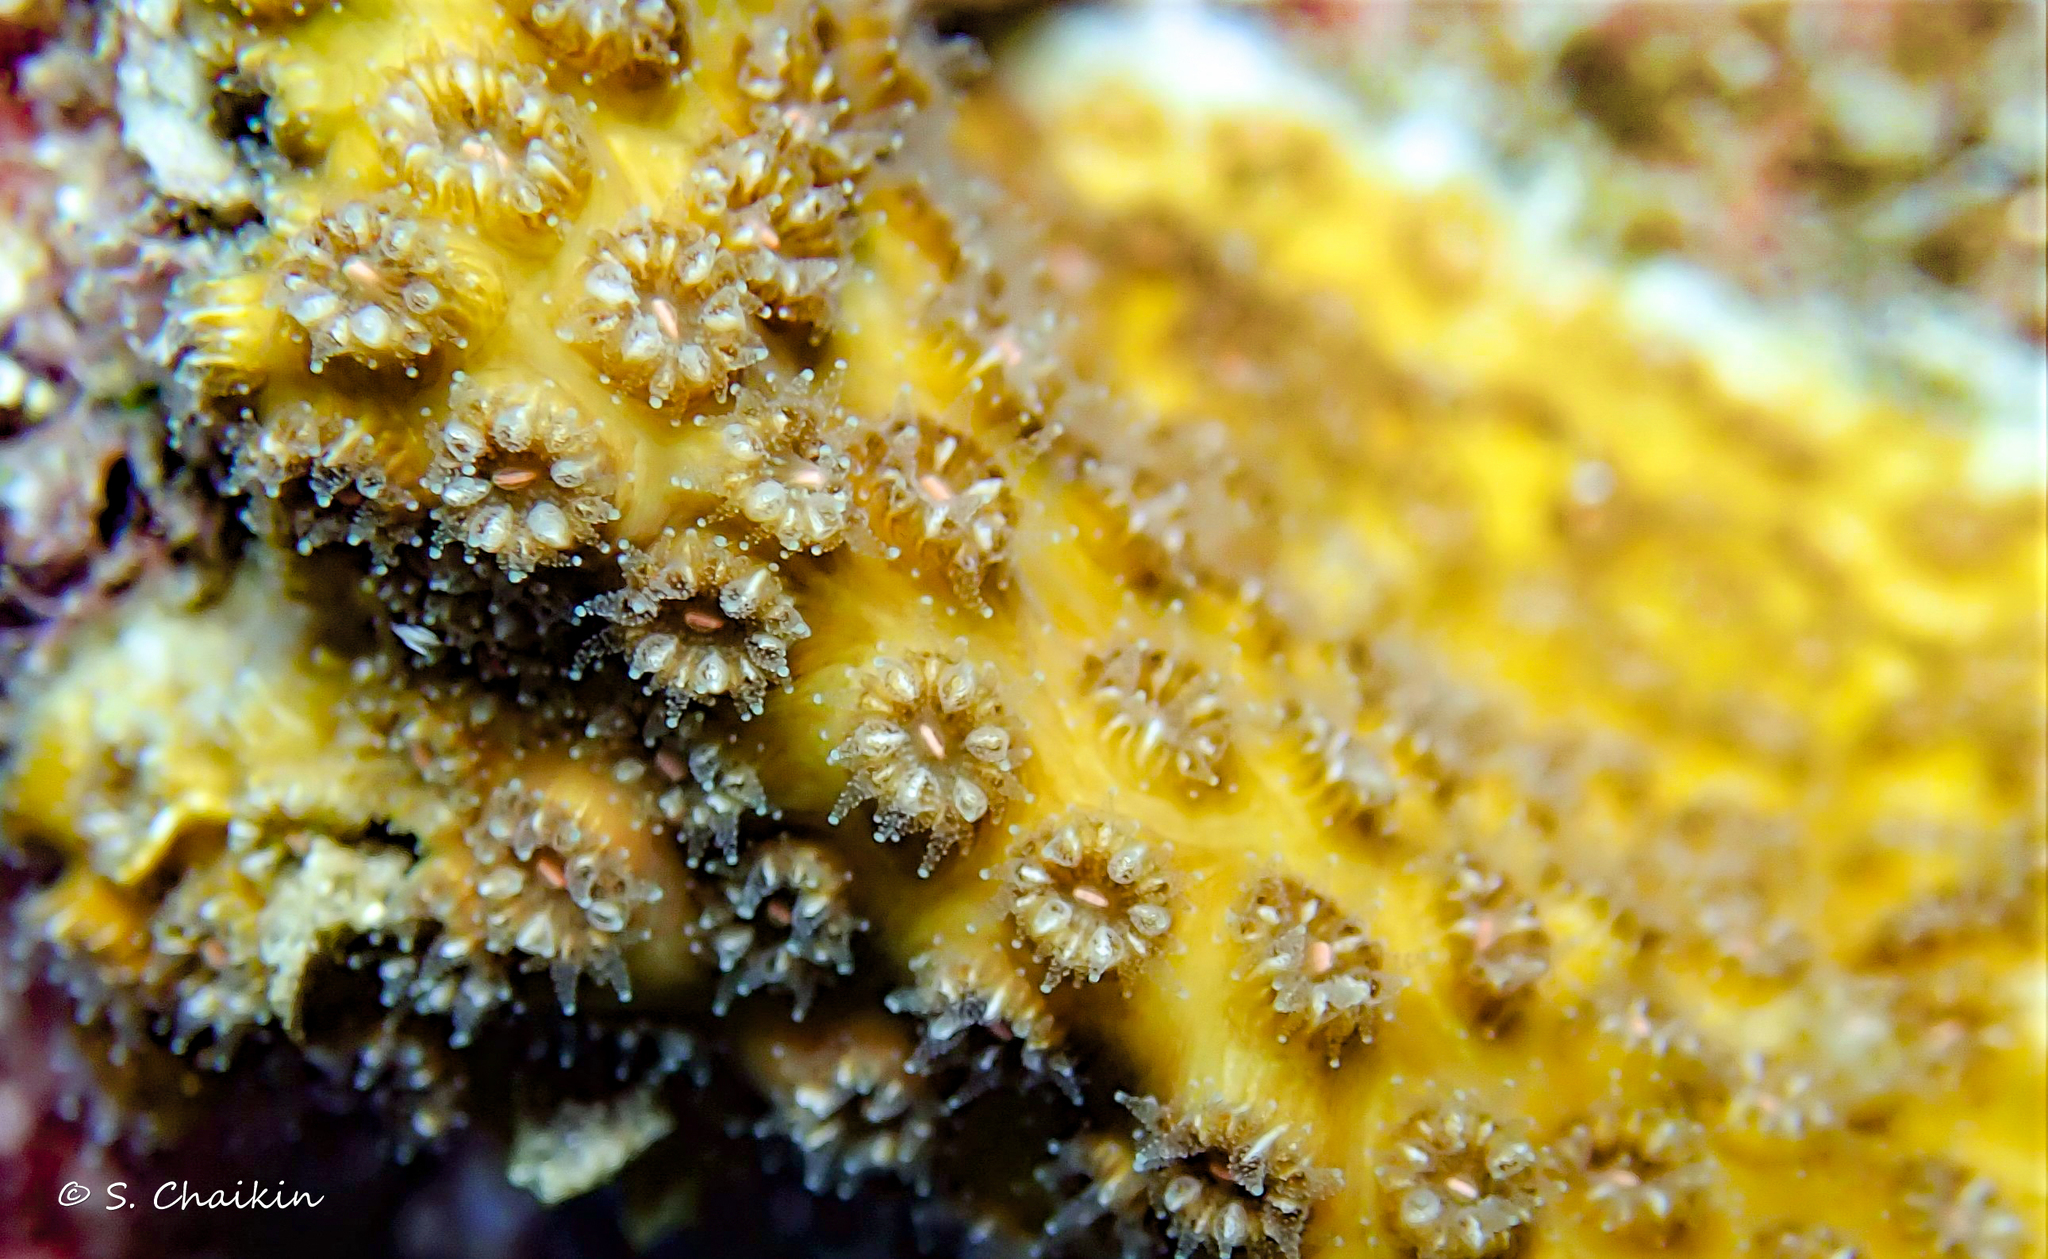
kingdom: Animalia
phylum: Cnidaria
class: Anthozoa
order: Scleractinia
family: Oculinidae
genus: Oculina
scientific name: Oculina patagonica
